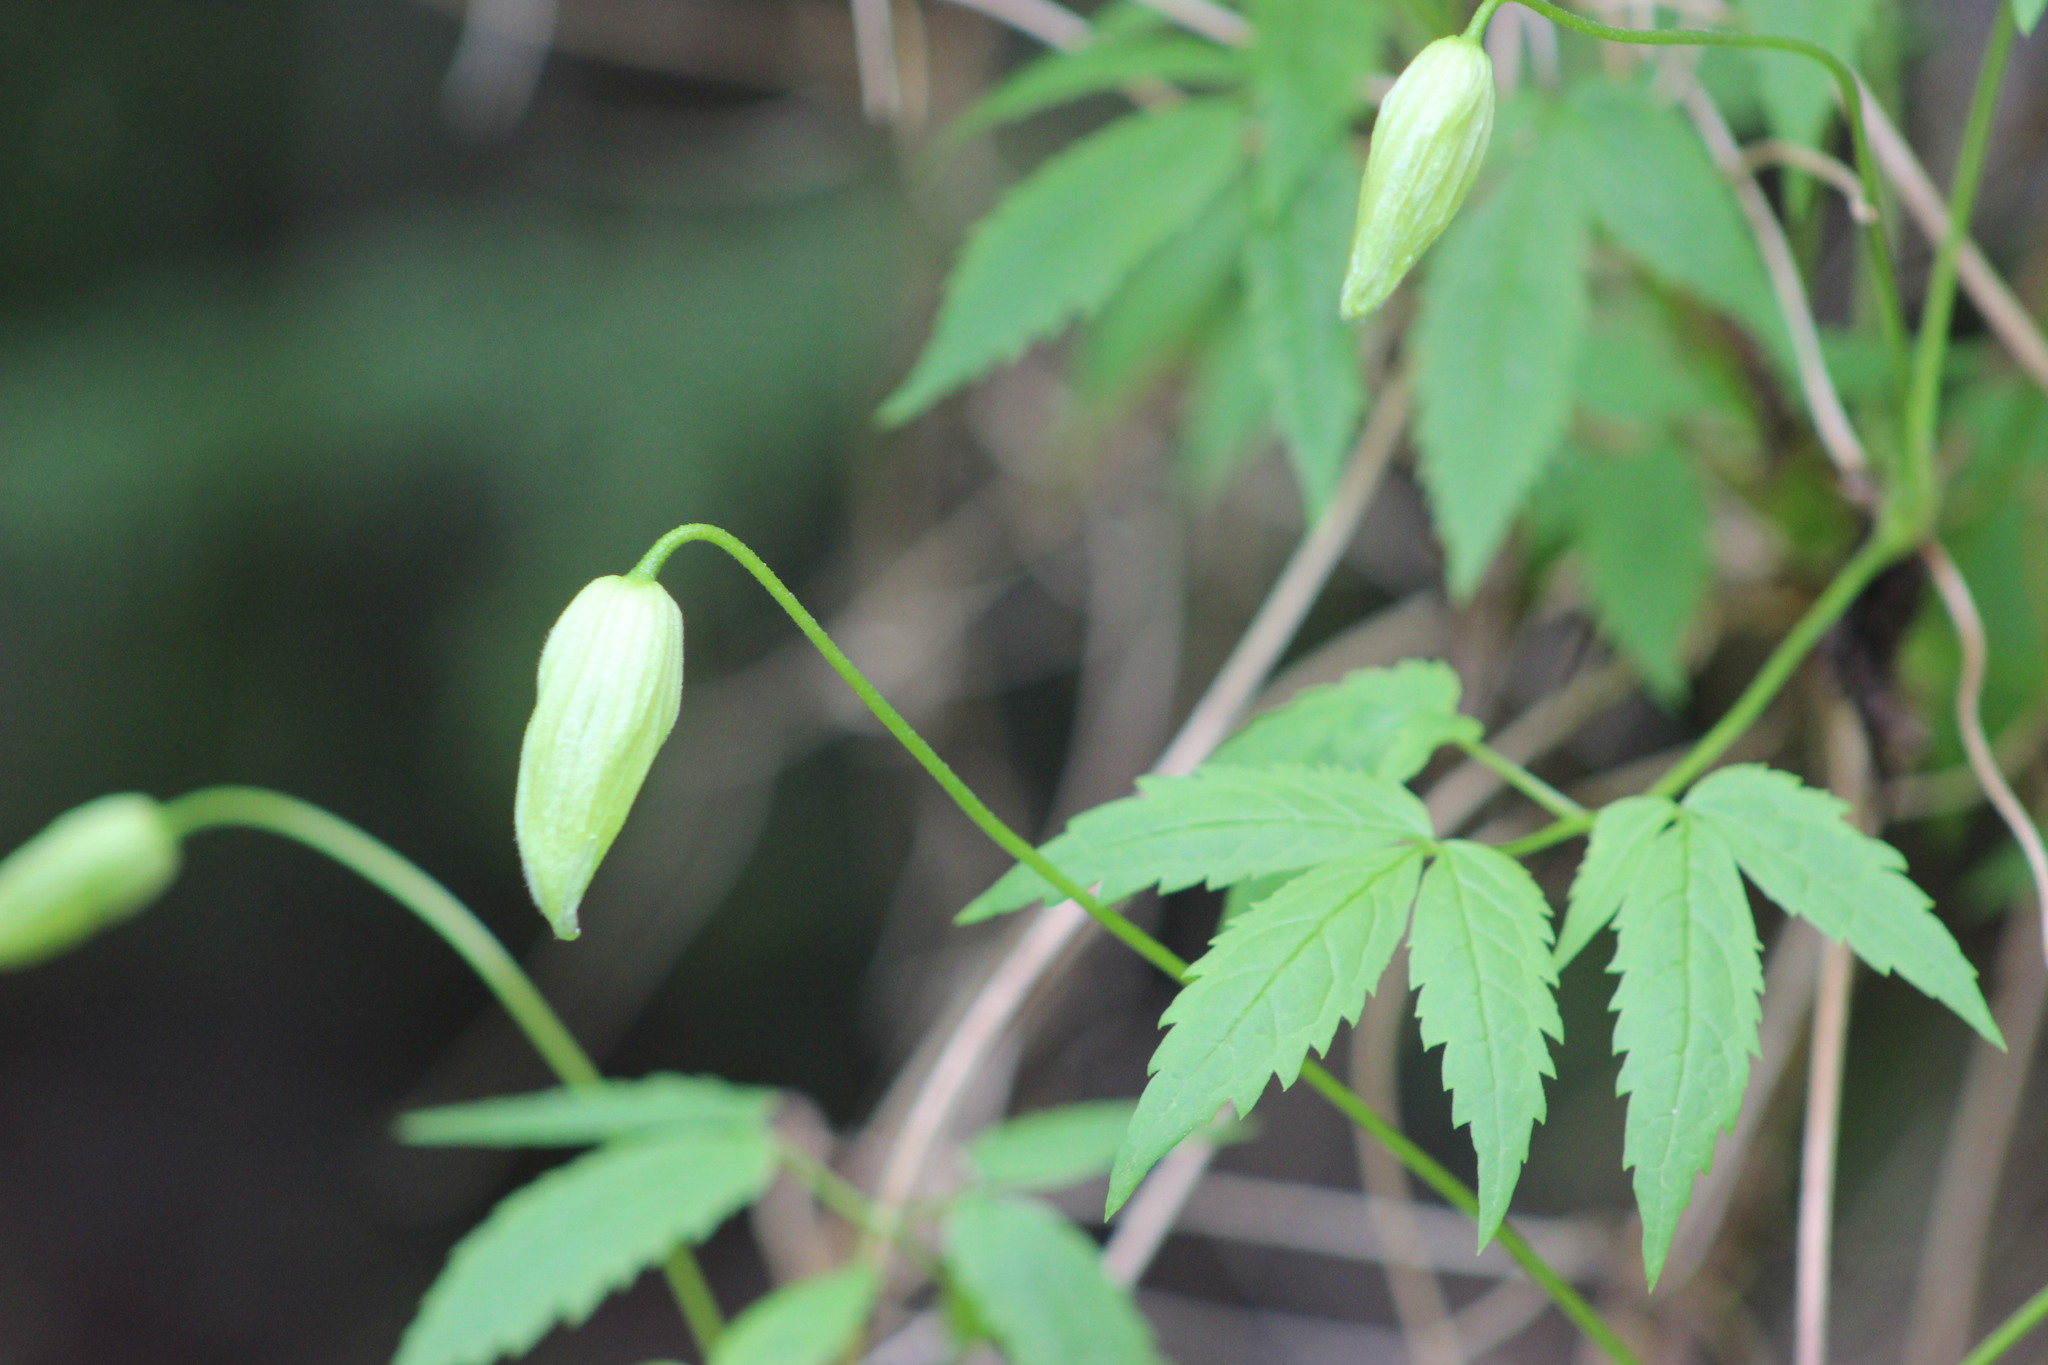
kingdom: Plantae
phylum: Tracheophyta
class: Magnoliopsida
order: Ranunculales
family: Ranunculaceae
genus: Clematis
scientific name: Clematis sibirica
